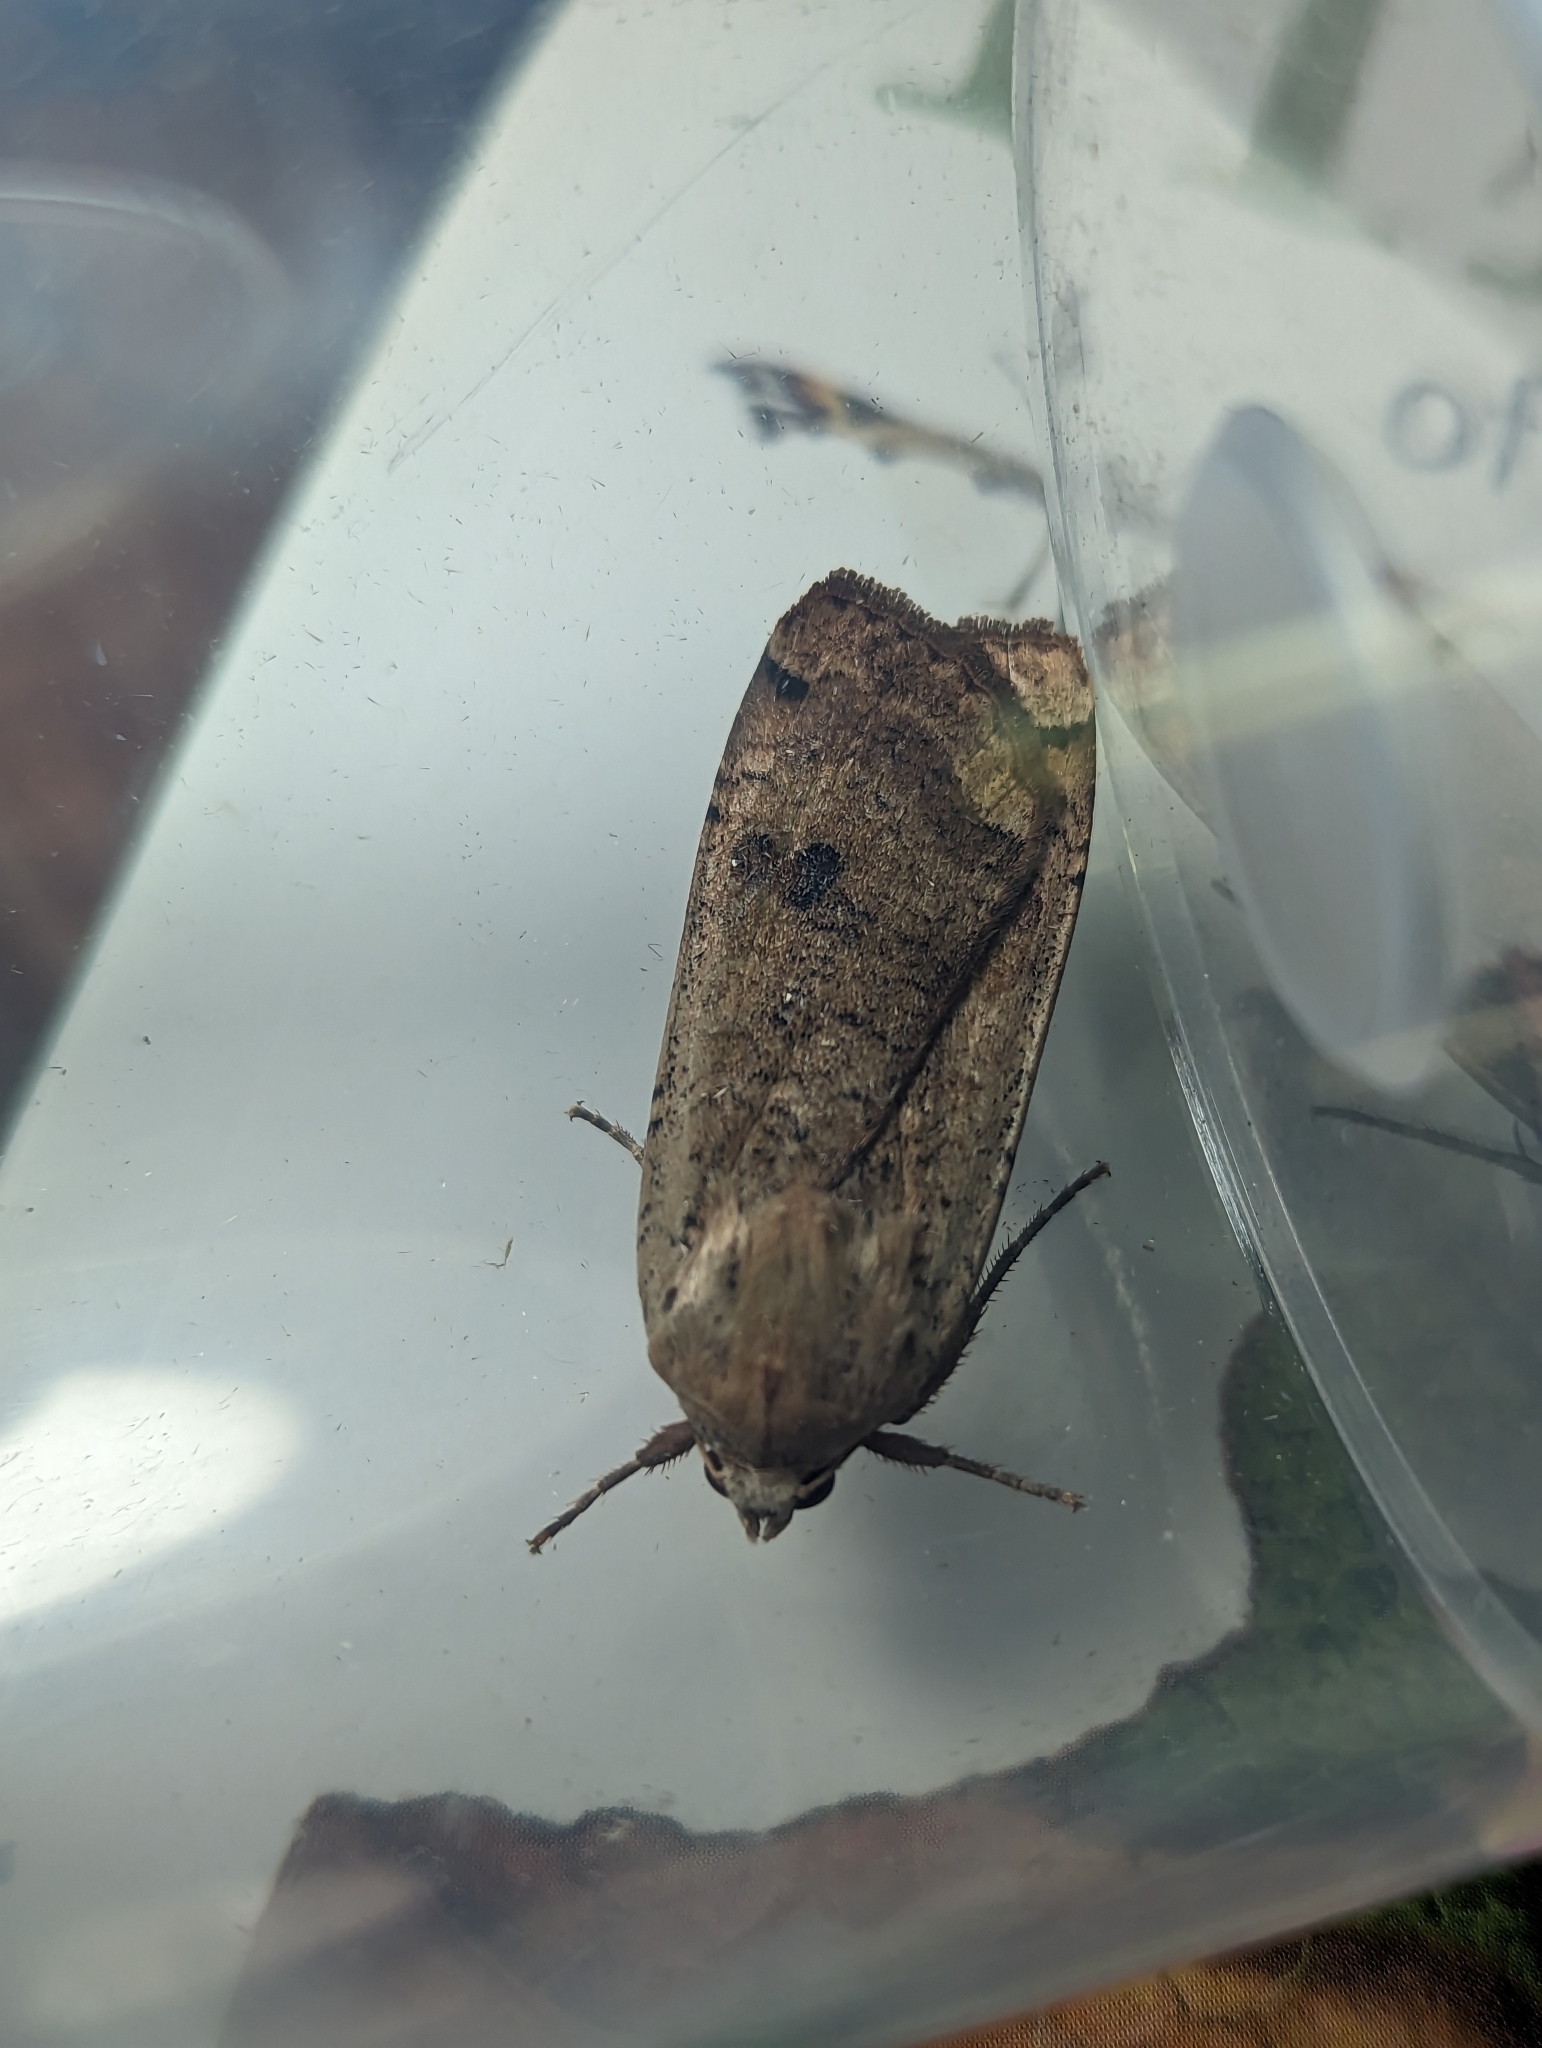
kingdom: Animalia
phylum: Arthropoda
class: Insecta
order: Lepidoptera
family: Noctuidae
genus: Noctua
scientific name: Noctua pronuba
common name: Large yellow underwing
